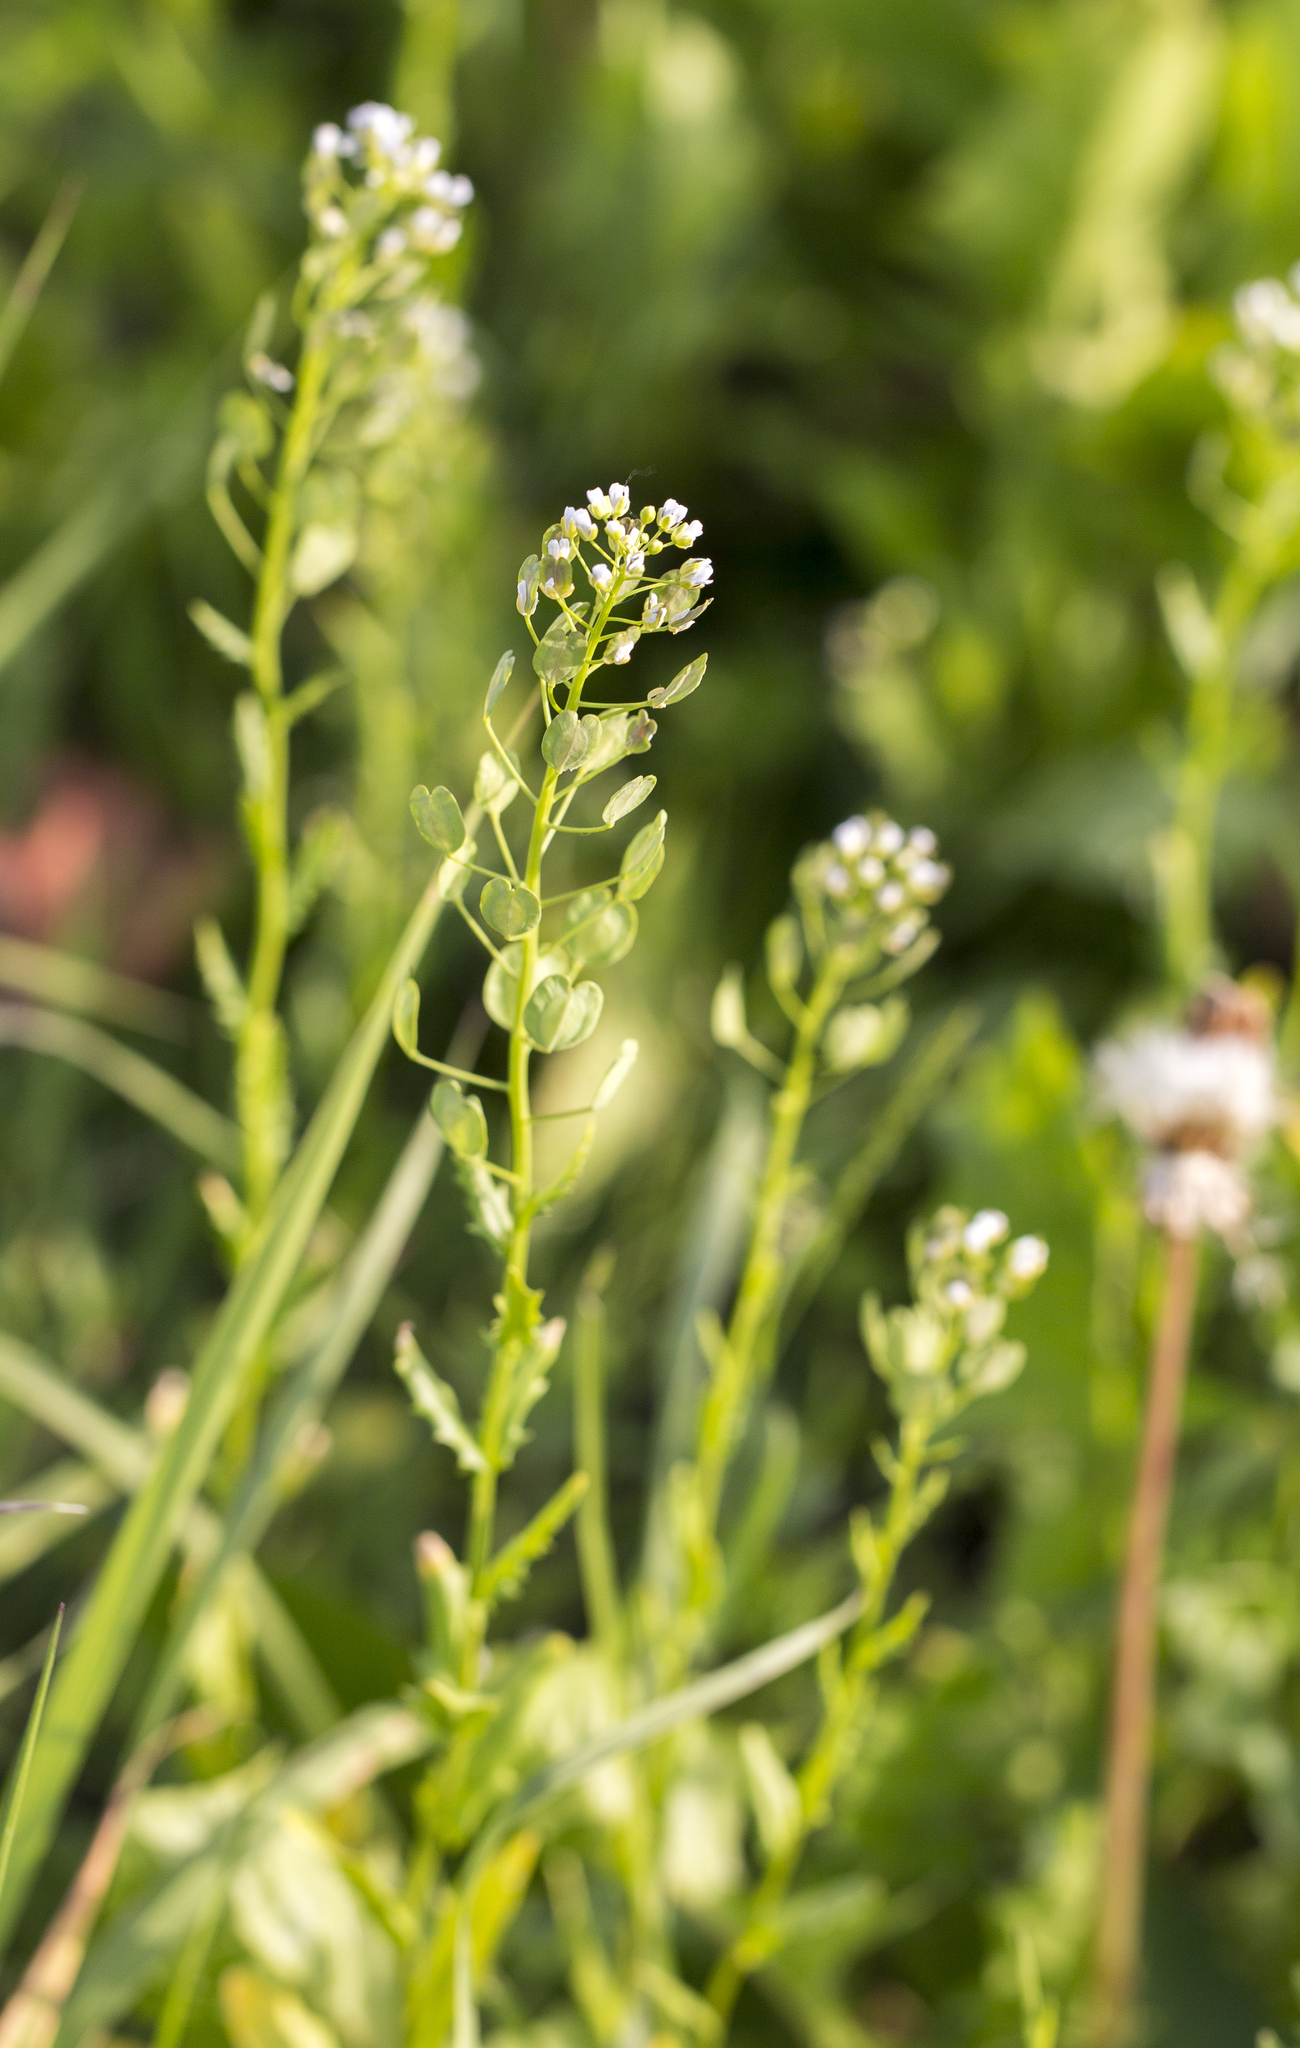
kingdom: Plantae
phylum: Tracheophyta
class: Magnoliopsida
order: Brassicales
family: Brassicaceae
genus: Thlaspi
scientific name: Thlaspi arvense
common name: Field pennycress
